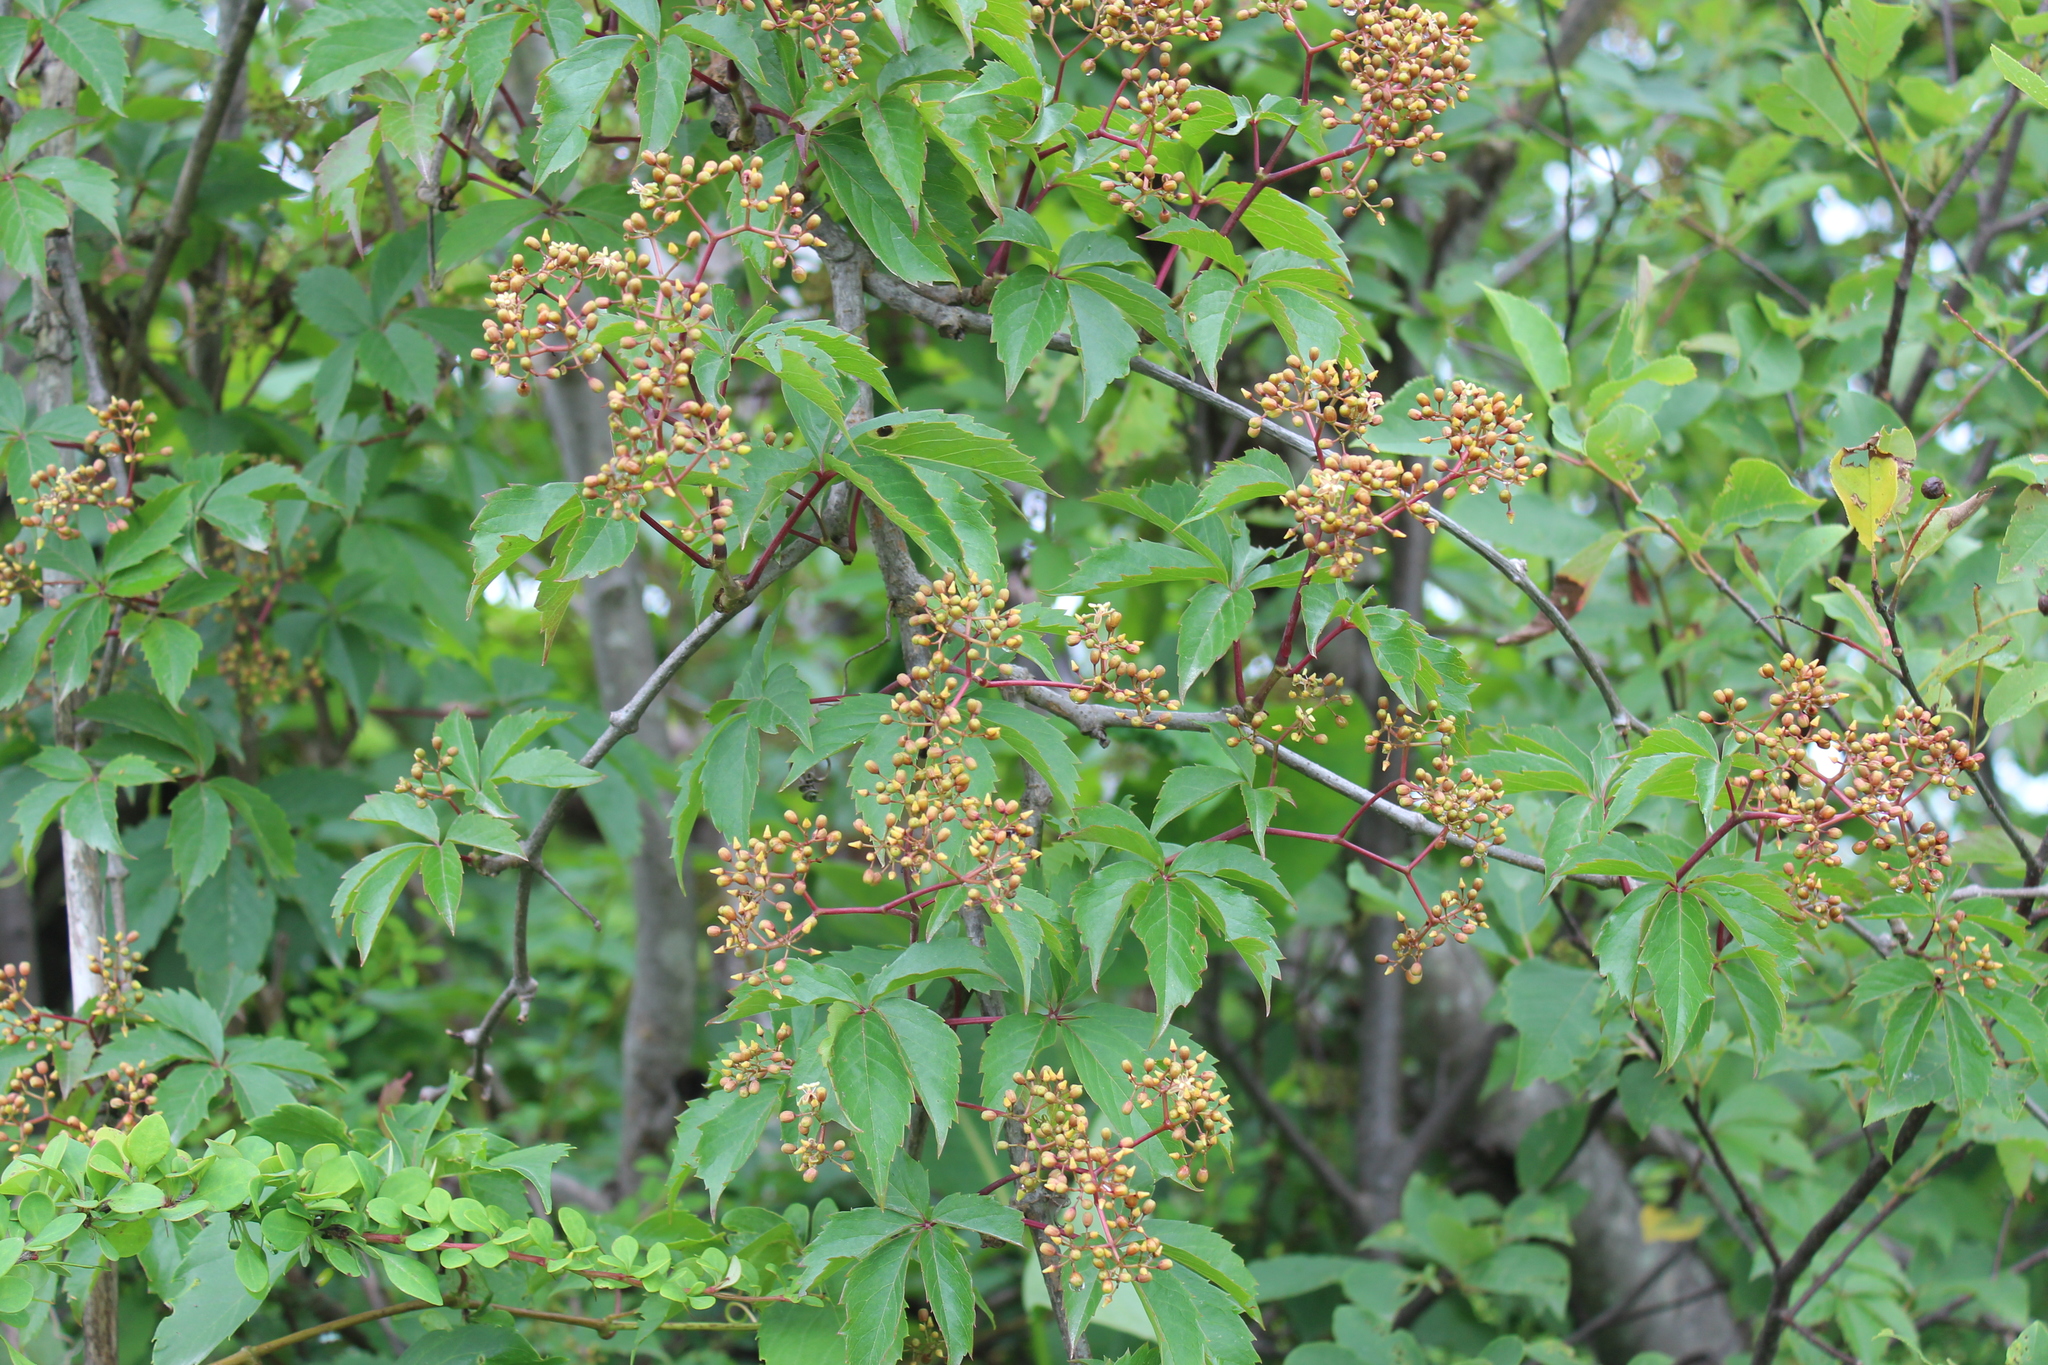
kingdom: Plantae
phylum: Tracheophyta
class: Magnoliopsida
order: Vitales
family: Vitaceae
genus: Parthenocissus
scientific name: Parthenocissus quinquefolia
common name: Virginia-creeper
